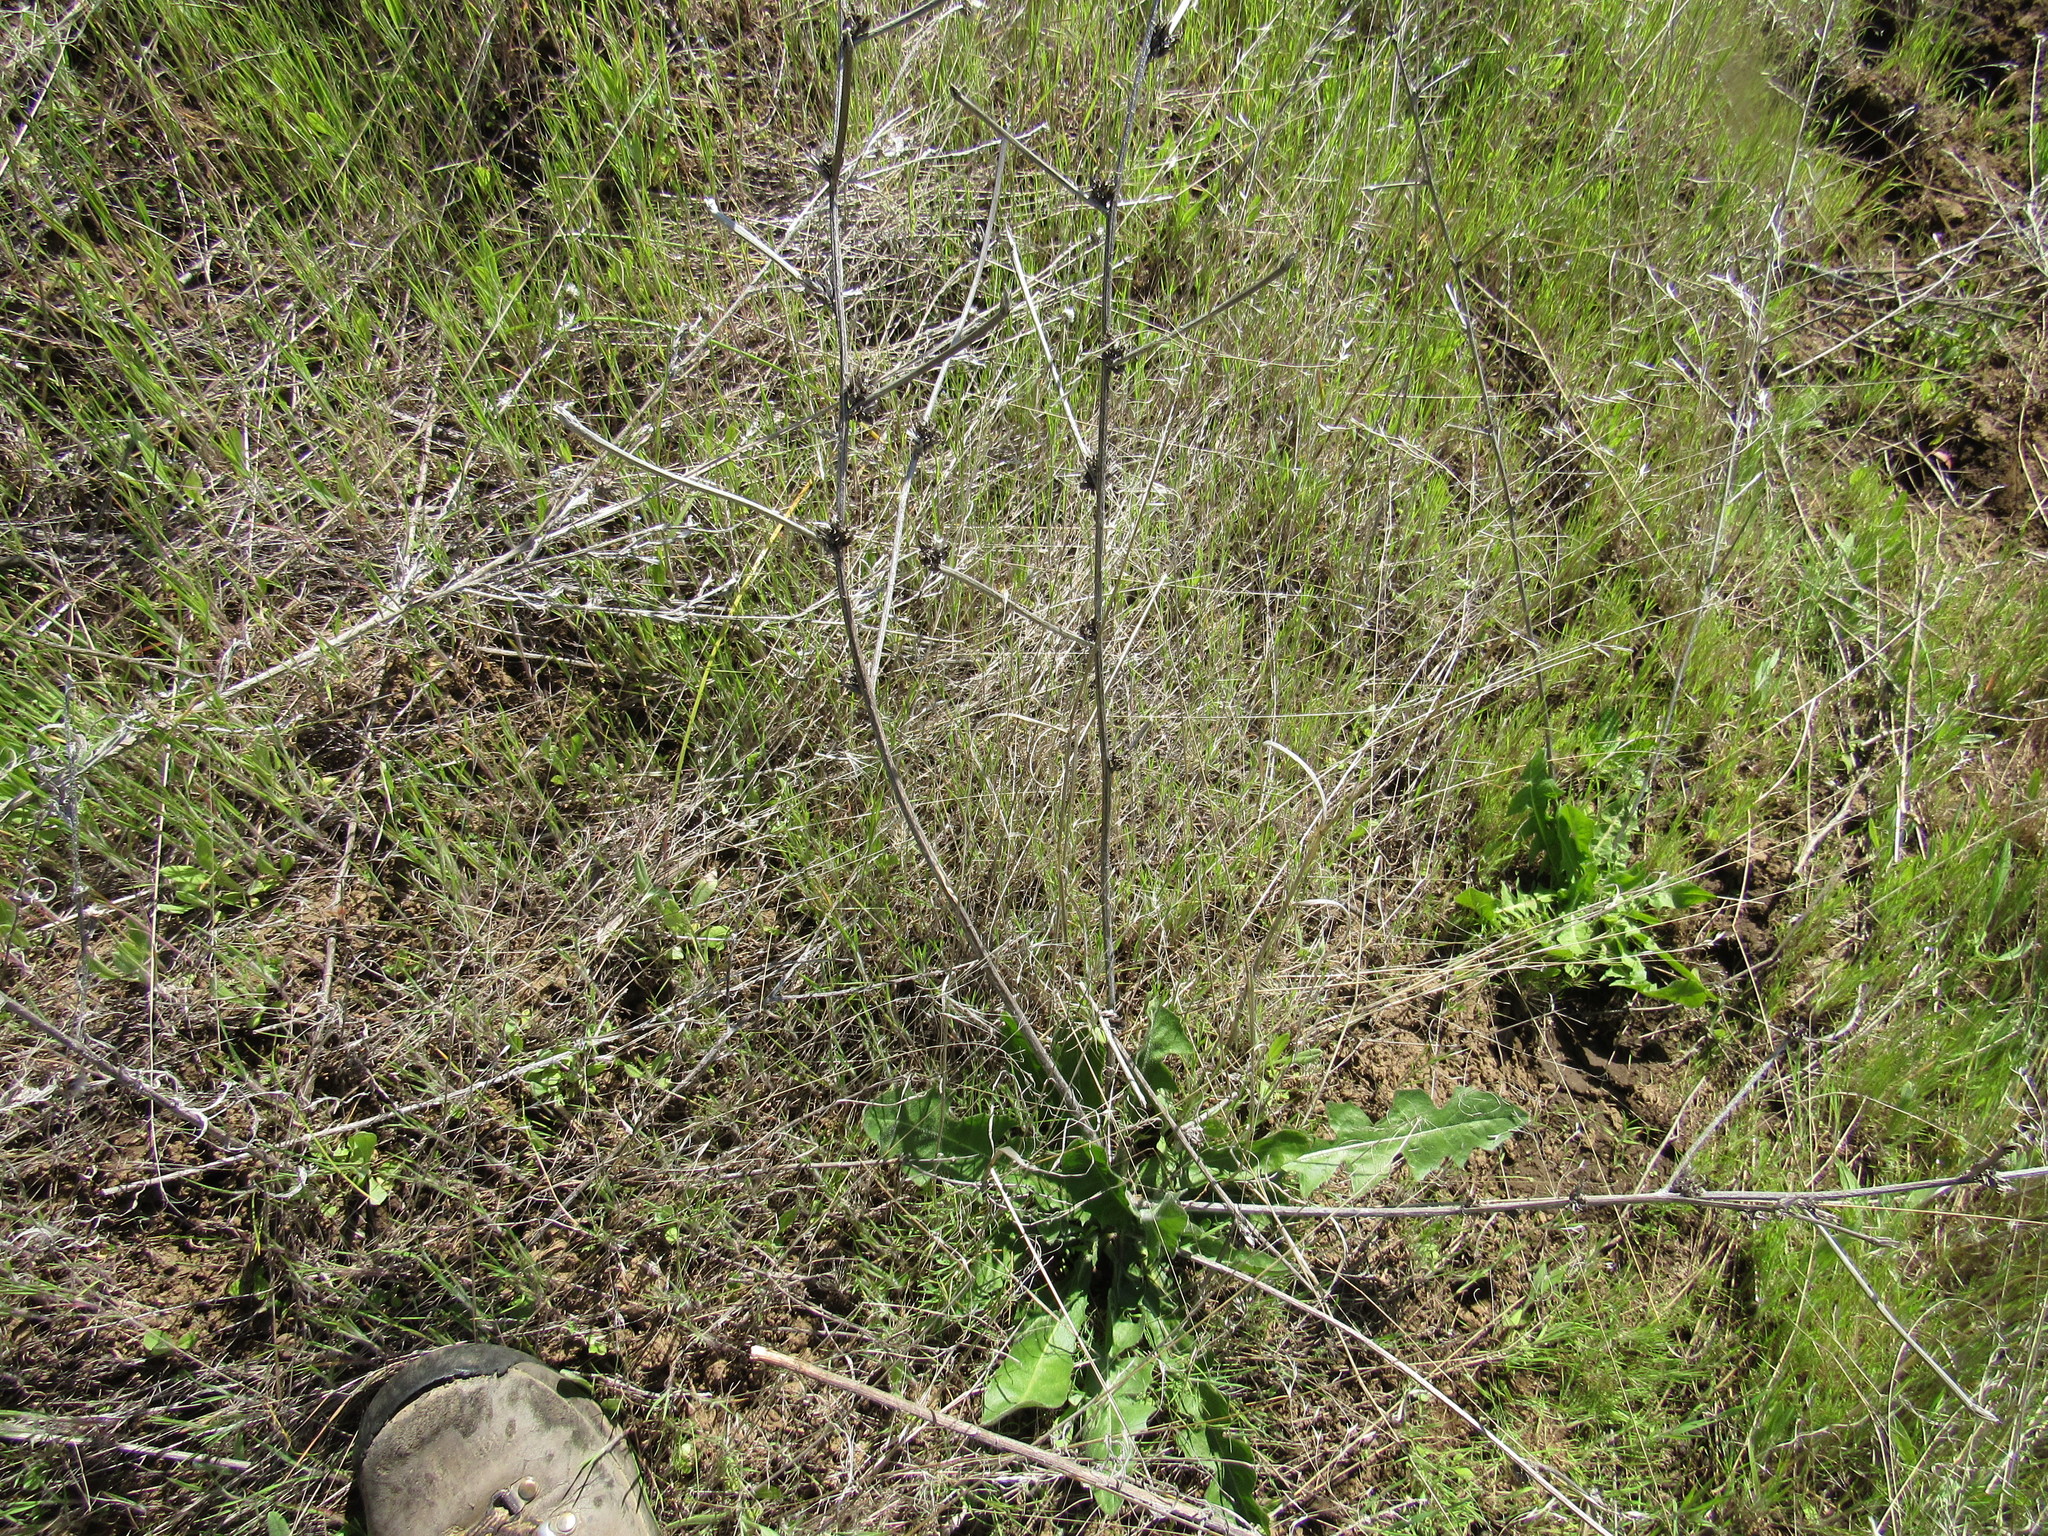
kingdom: Plantae
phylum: Tracheophyta
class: Magnoliopsida
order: Asterales
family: Asteraceae
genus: Cichorium
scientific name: Cichorium intybus
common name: Chicory
